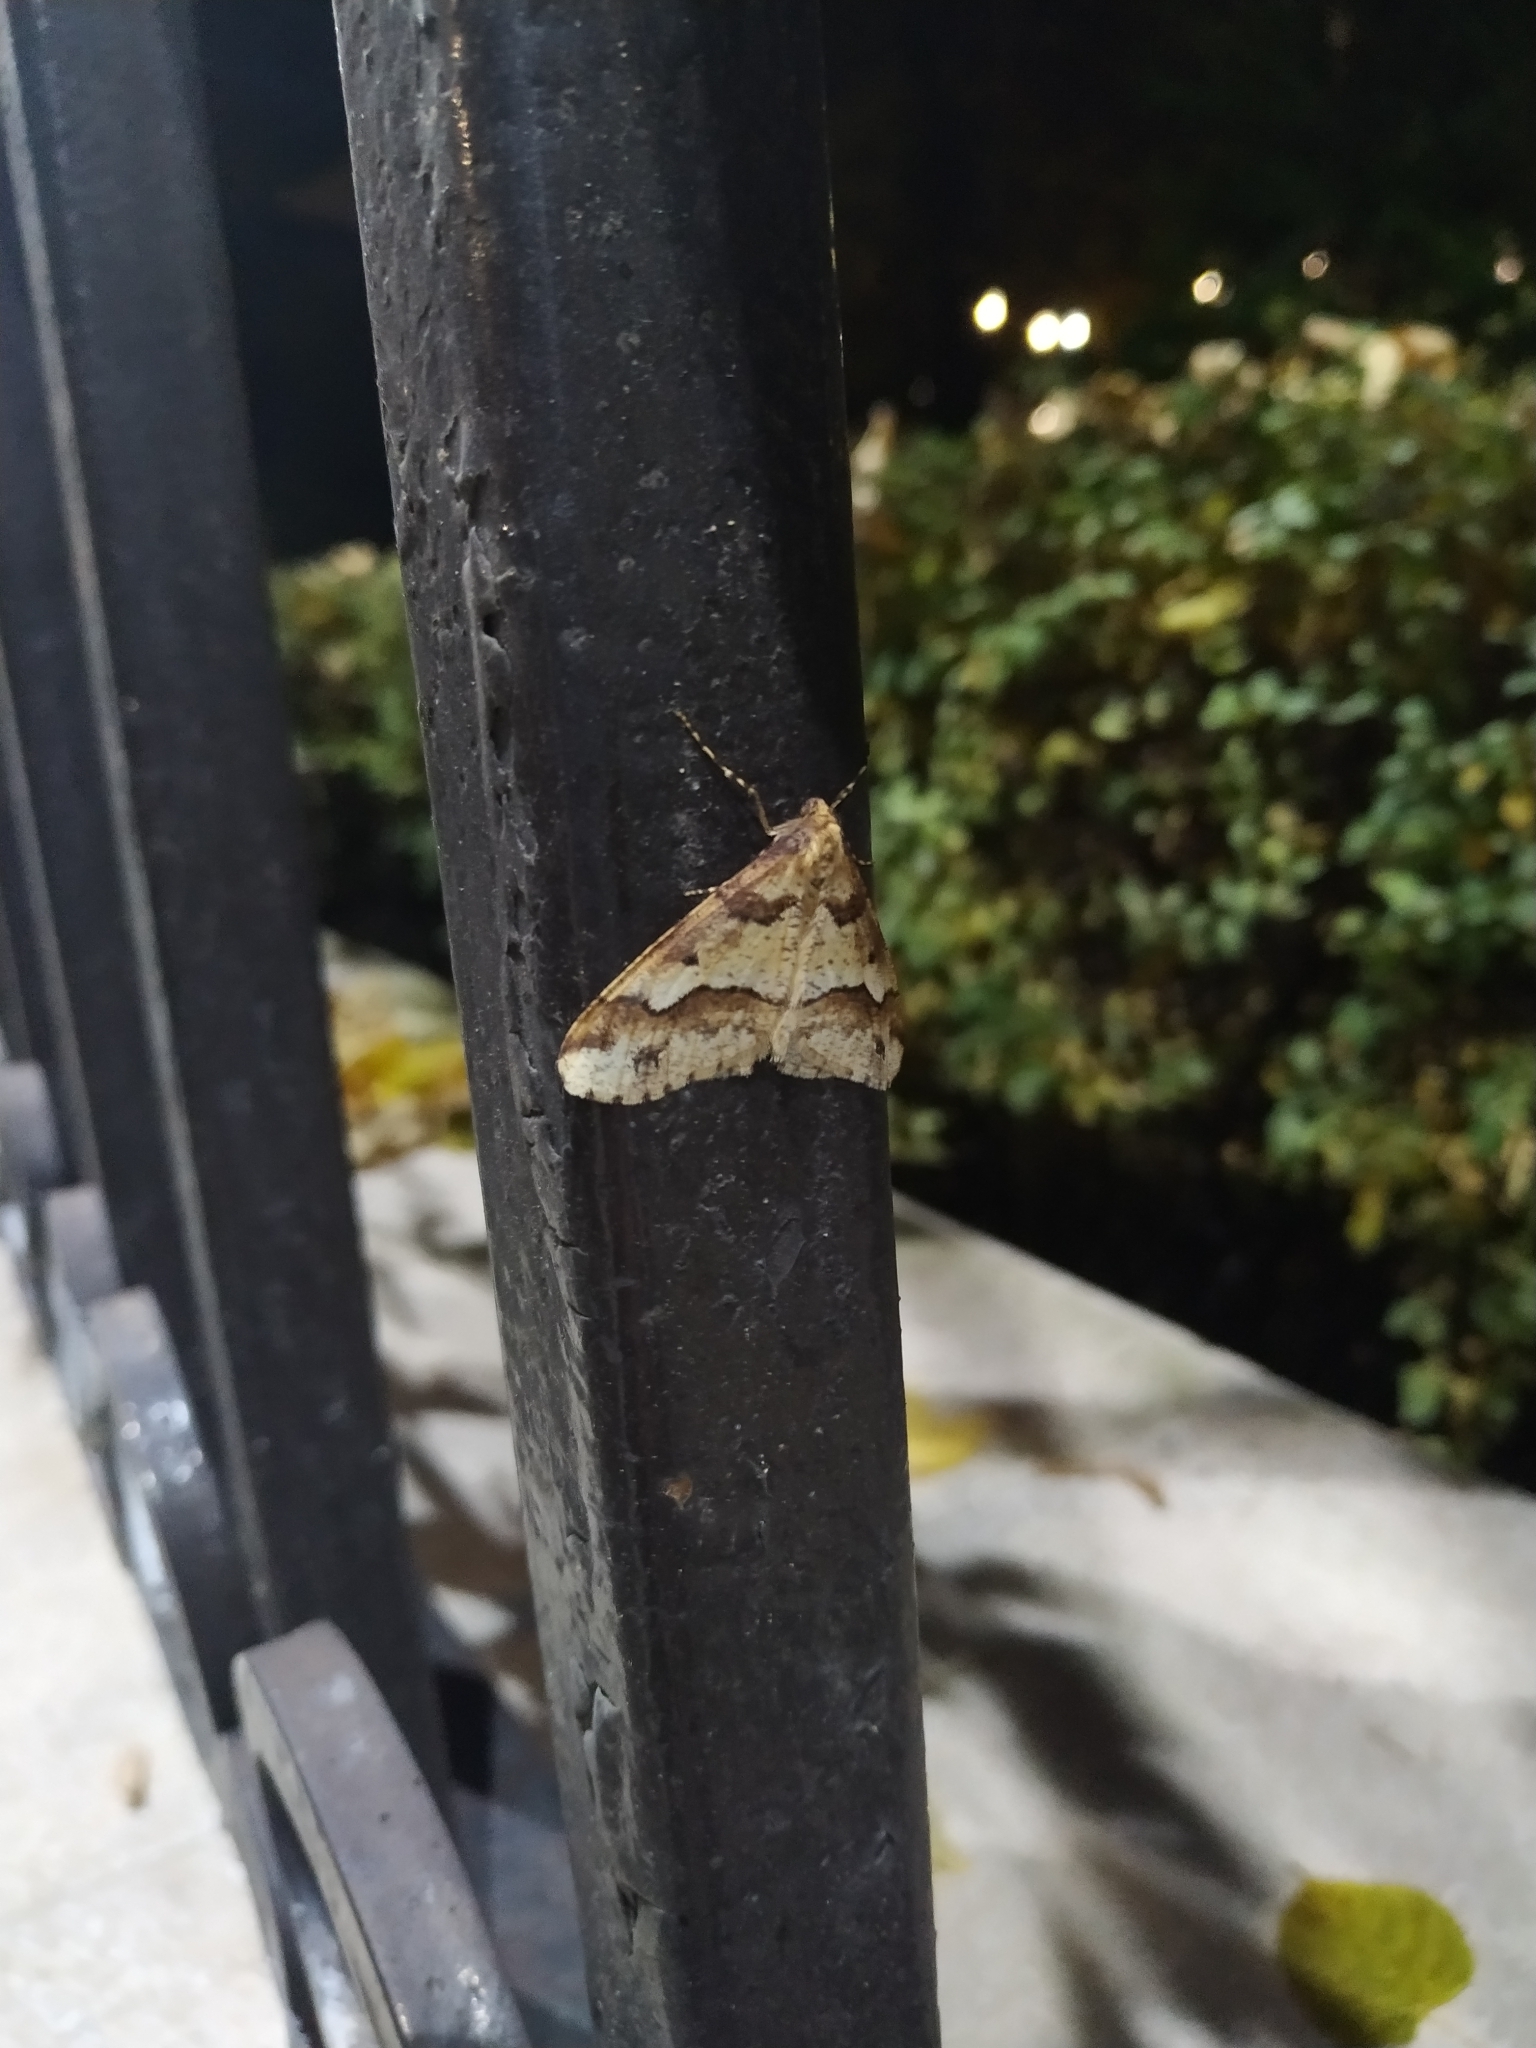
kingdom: Animalia
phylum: Arthropoda
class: Insecta
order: Lepidoptera
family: Geometridae
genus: Erannis
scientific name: Erannis defoliaria
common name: Mottled umber
